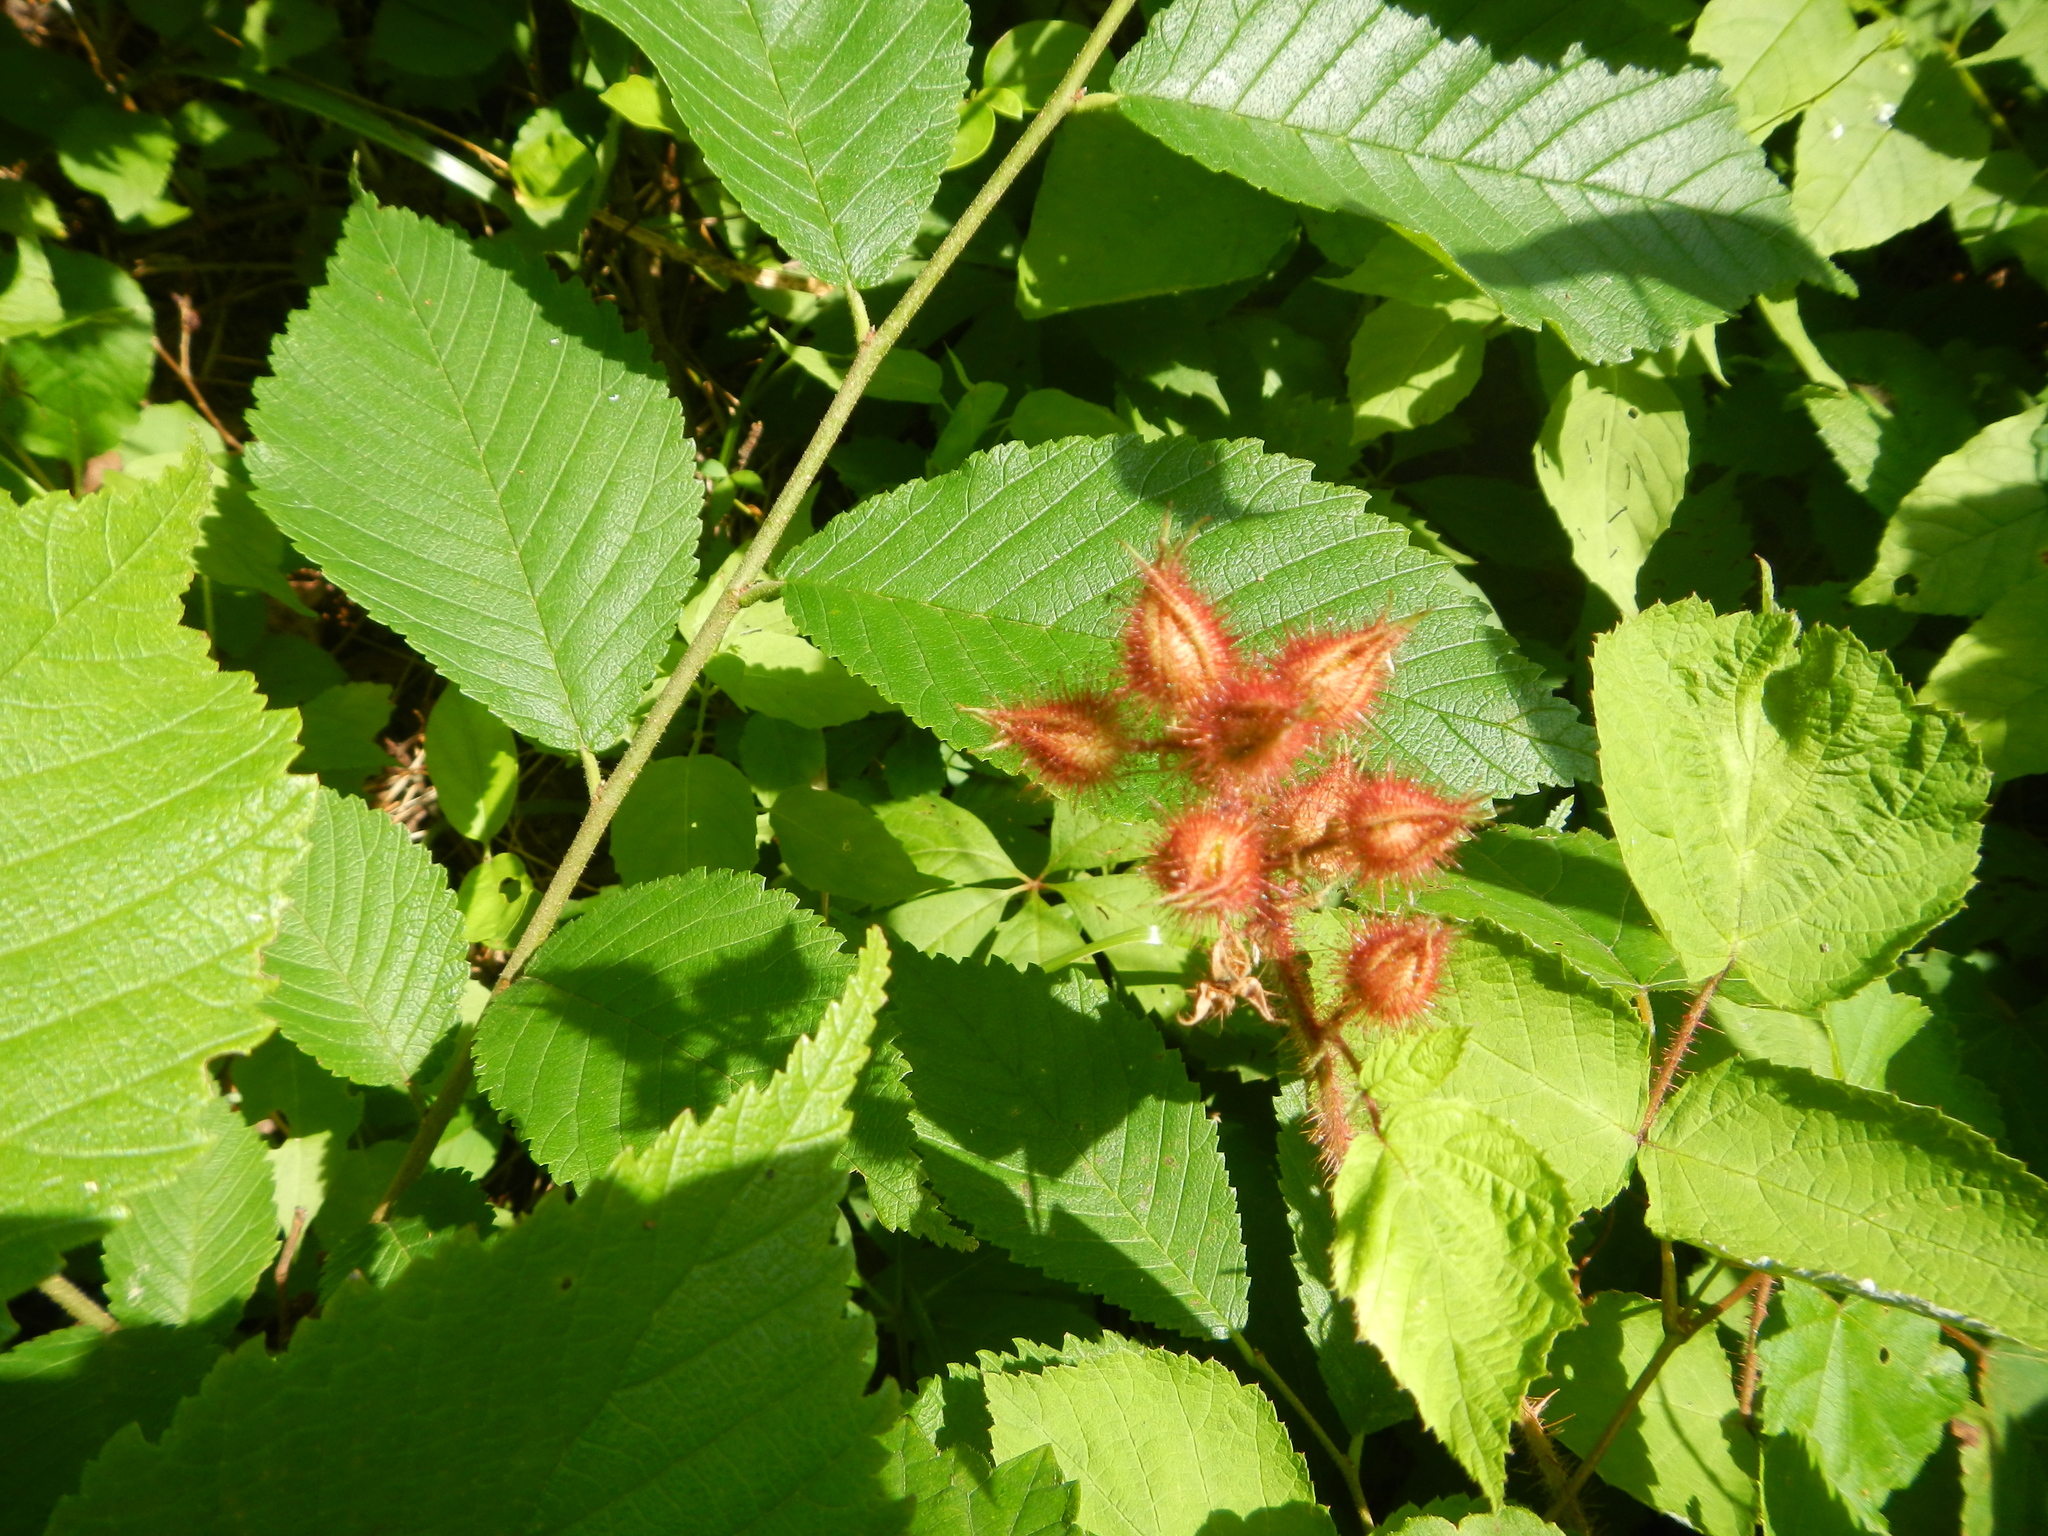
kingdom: Plantae
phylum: Tracheophyta
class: Magnoliopsida
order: Rosales
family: Rosaceae
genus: Rubus
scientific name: Rubus phoenicolasius
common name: Japanese wineberry
